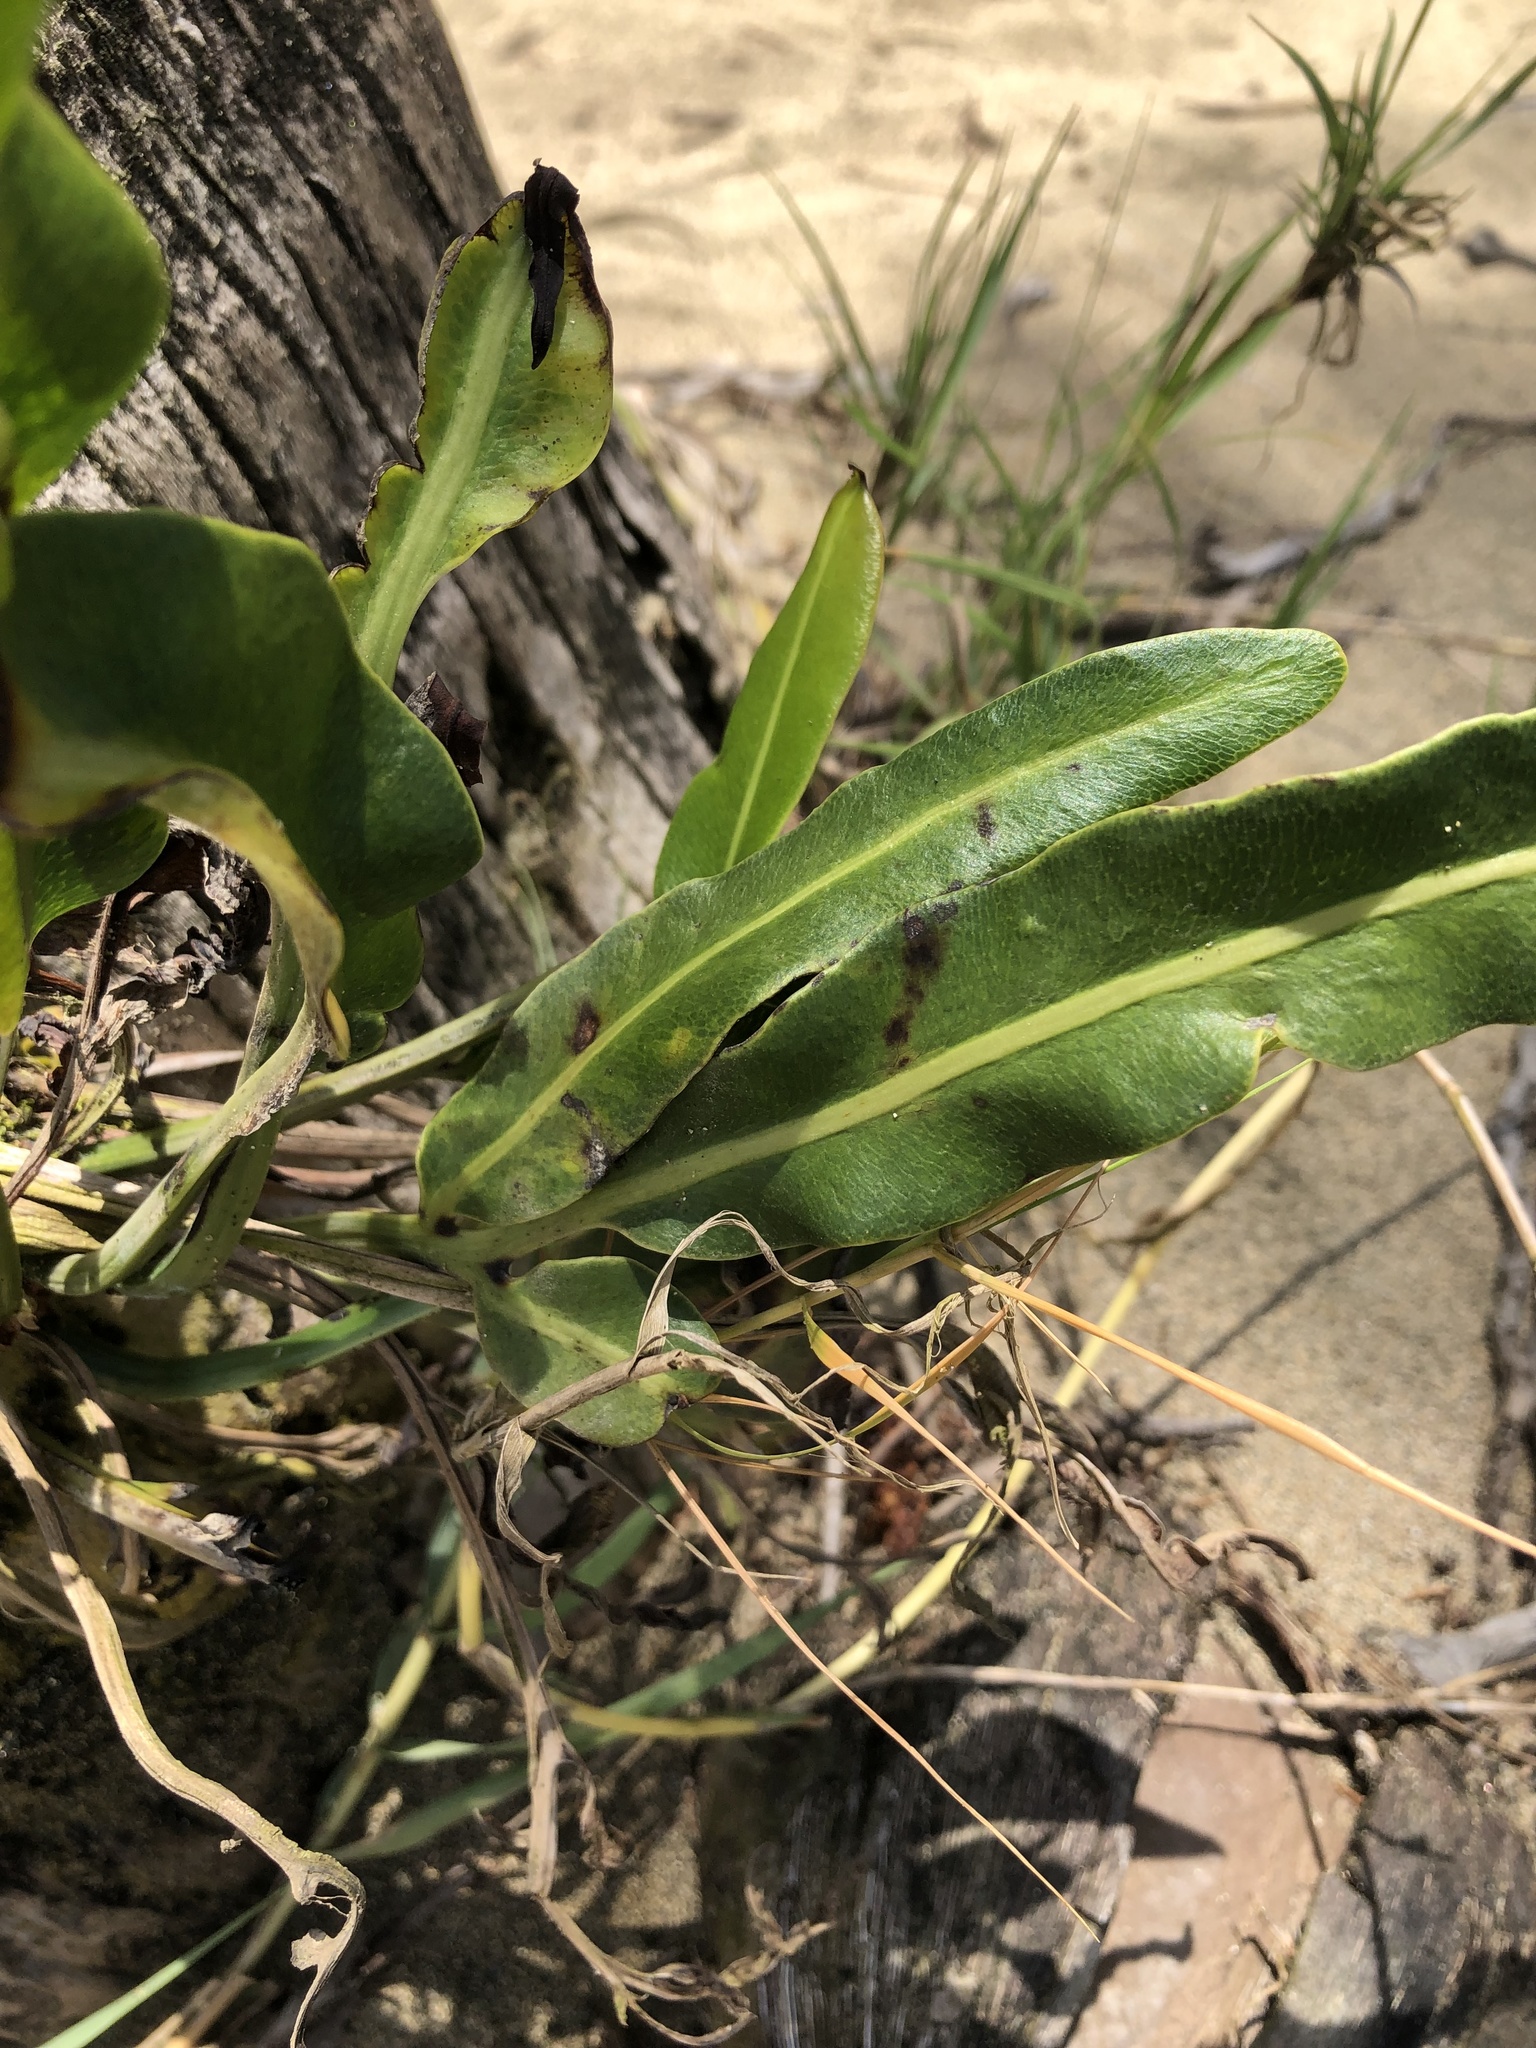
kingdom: Plantae
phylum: Tracheophyta
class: Polypodiopsida
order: Polypodiales
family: Pteridaceae
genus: Acrostichum
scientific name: Acrostichum danaeifolium
